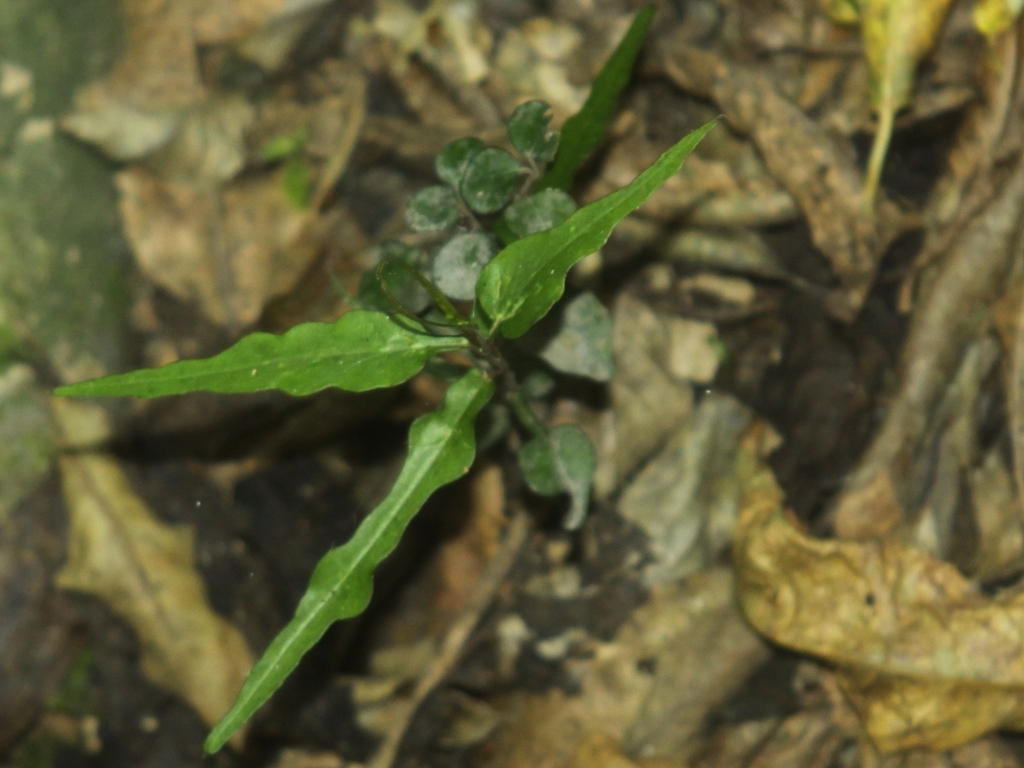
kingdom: Plantae
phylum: Tracheophyta
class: Magnoliopsida
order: Gentianales
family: Apocynaceae
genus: Parsonsia
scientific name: Parsonsia heterophylla
